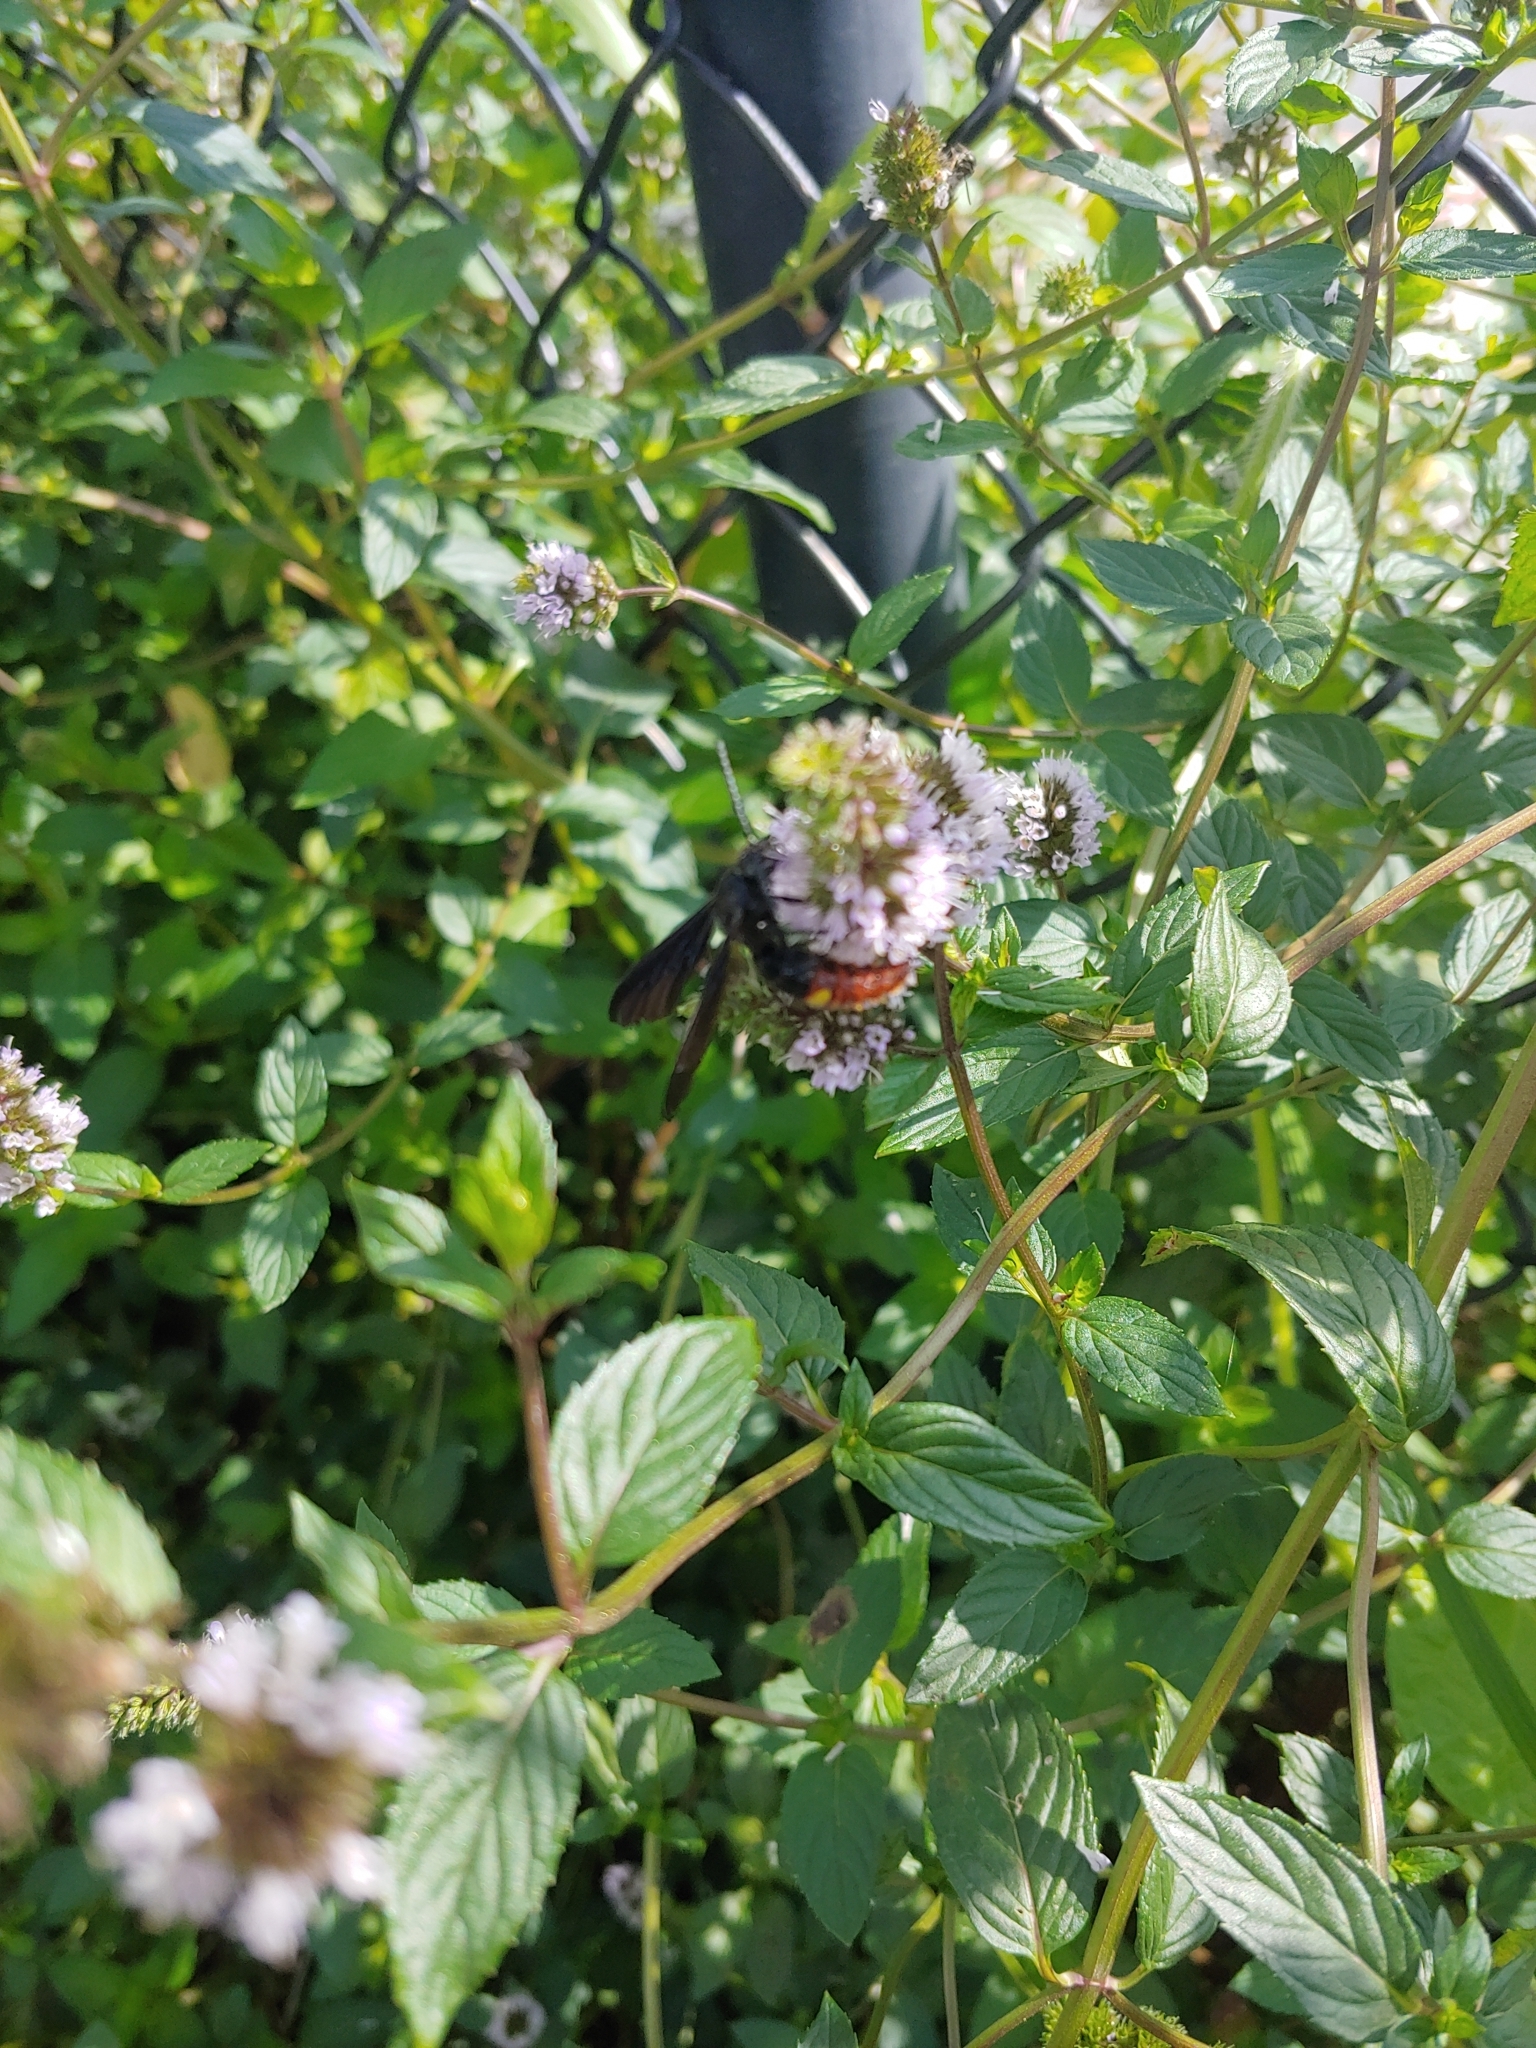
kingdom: Animalia
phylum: Arthropoda
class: Insecta
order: Hymenoptera
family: Scoliidae
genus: Scolia
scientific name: Scolia dubia
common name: Blue-winged scoliid wasp
